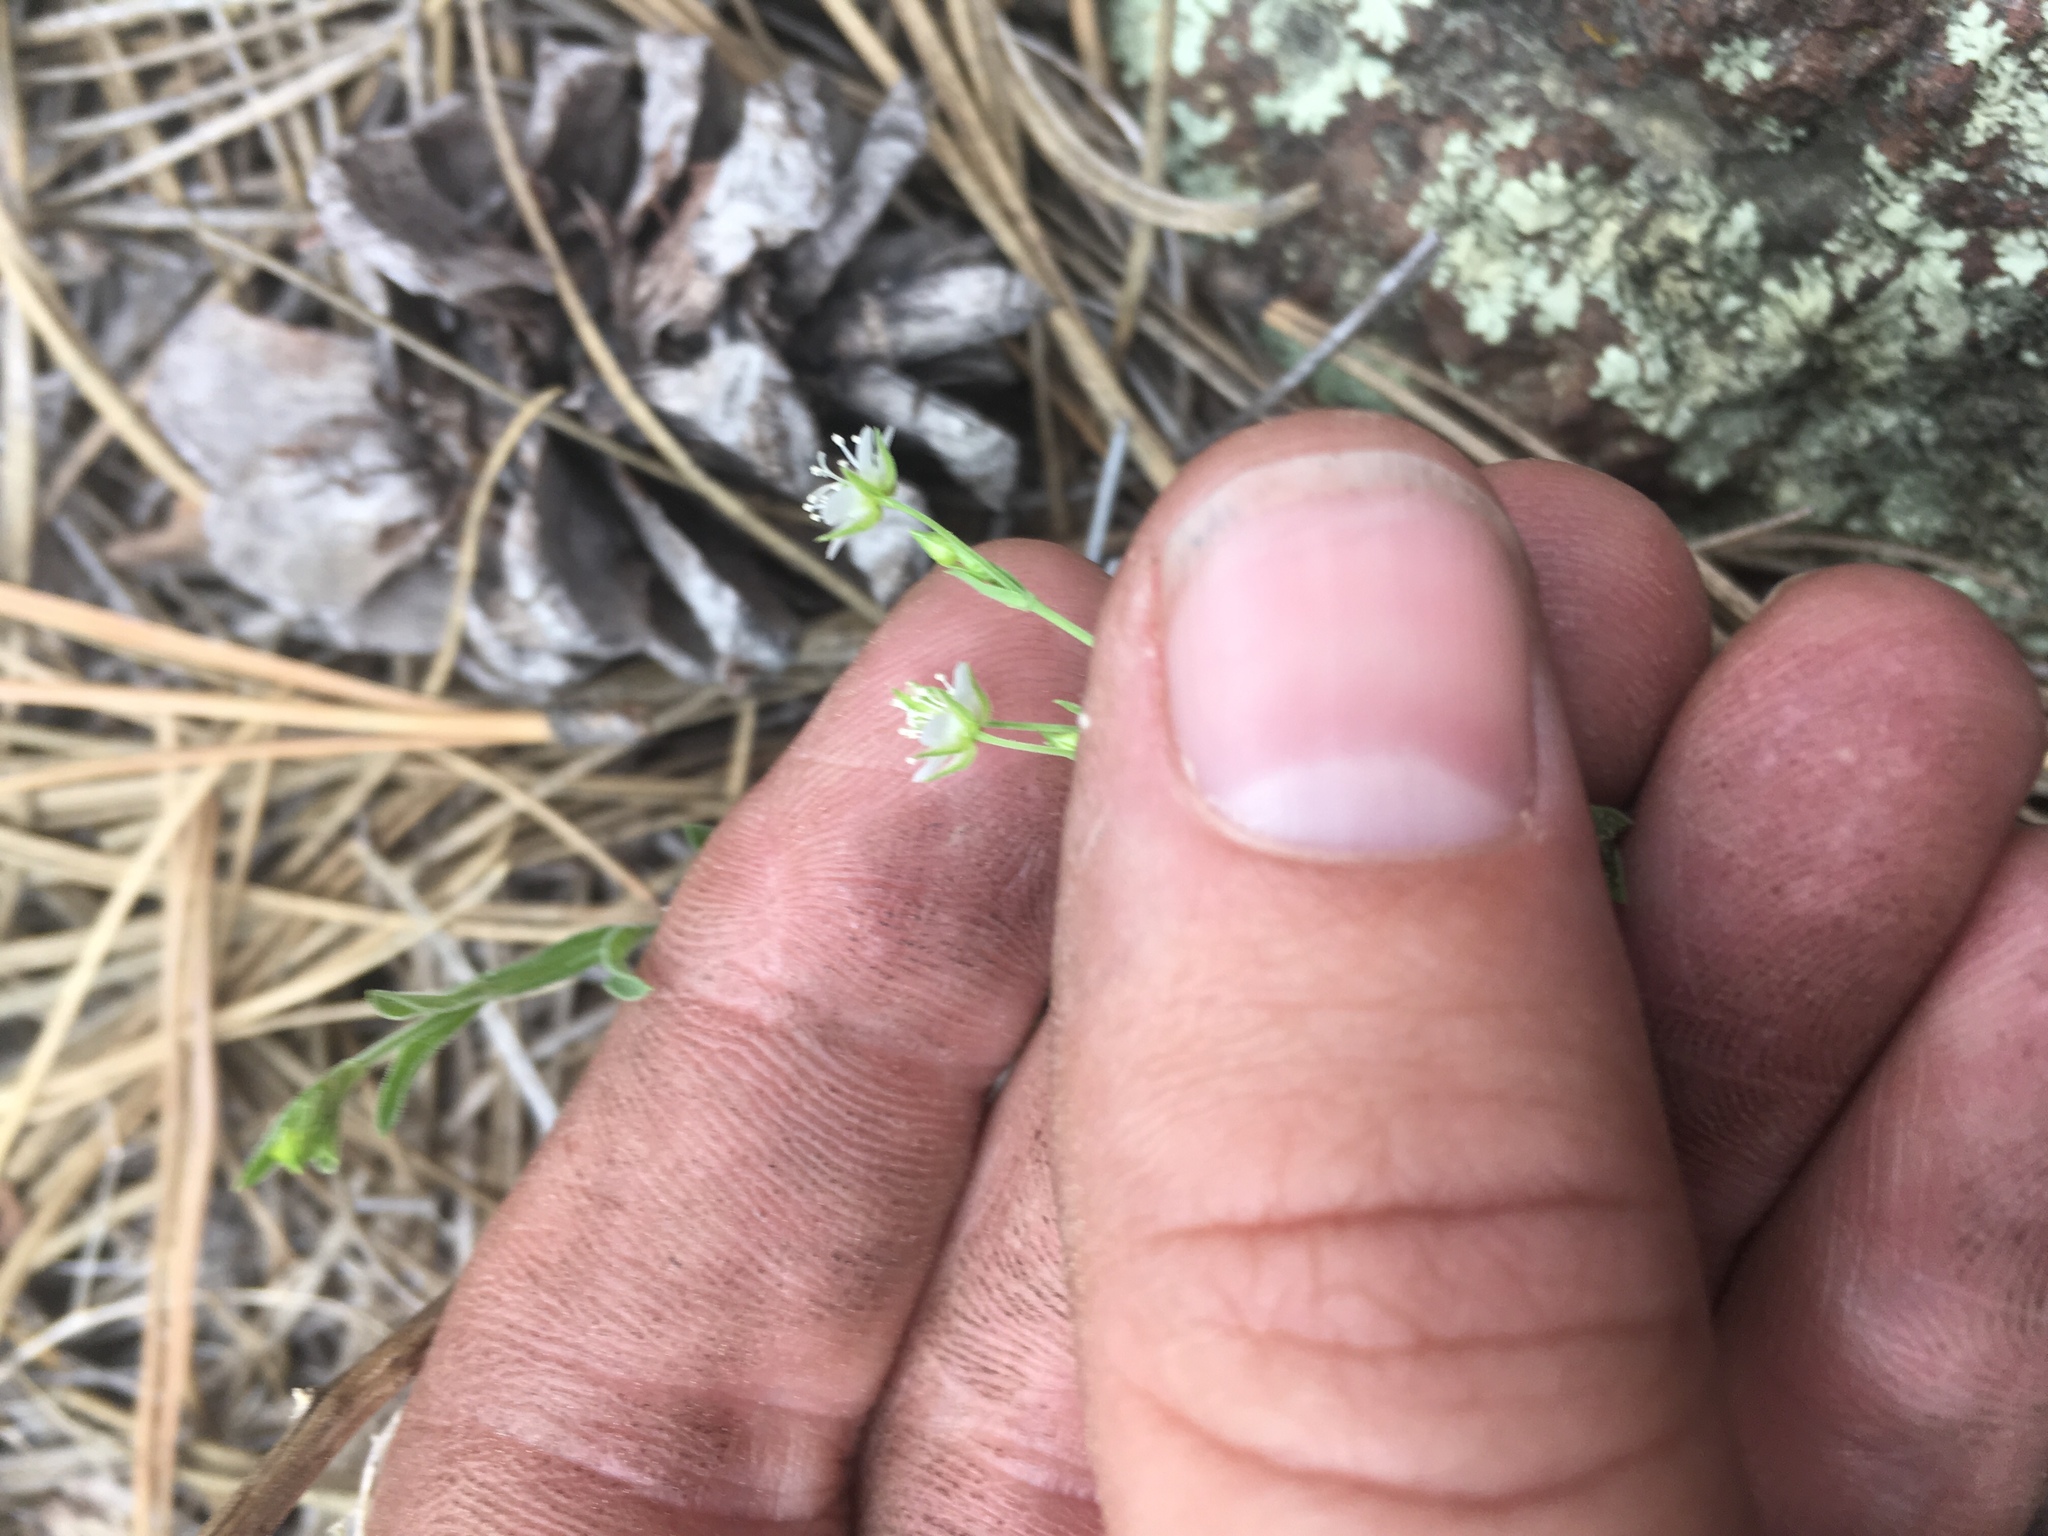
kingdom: Plantae
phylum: Tracheophyta
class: Magnoliopsida
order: Caryophyllales
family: Caryophyllaceae
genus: Arenaria
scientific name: Arenaria lanuginosa
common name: Spread sandwort
